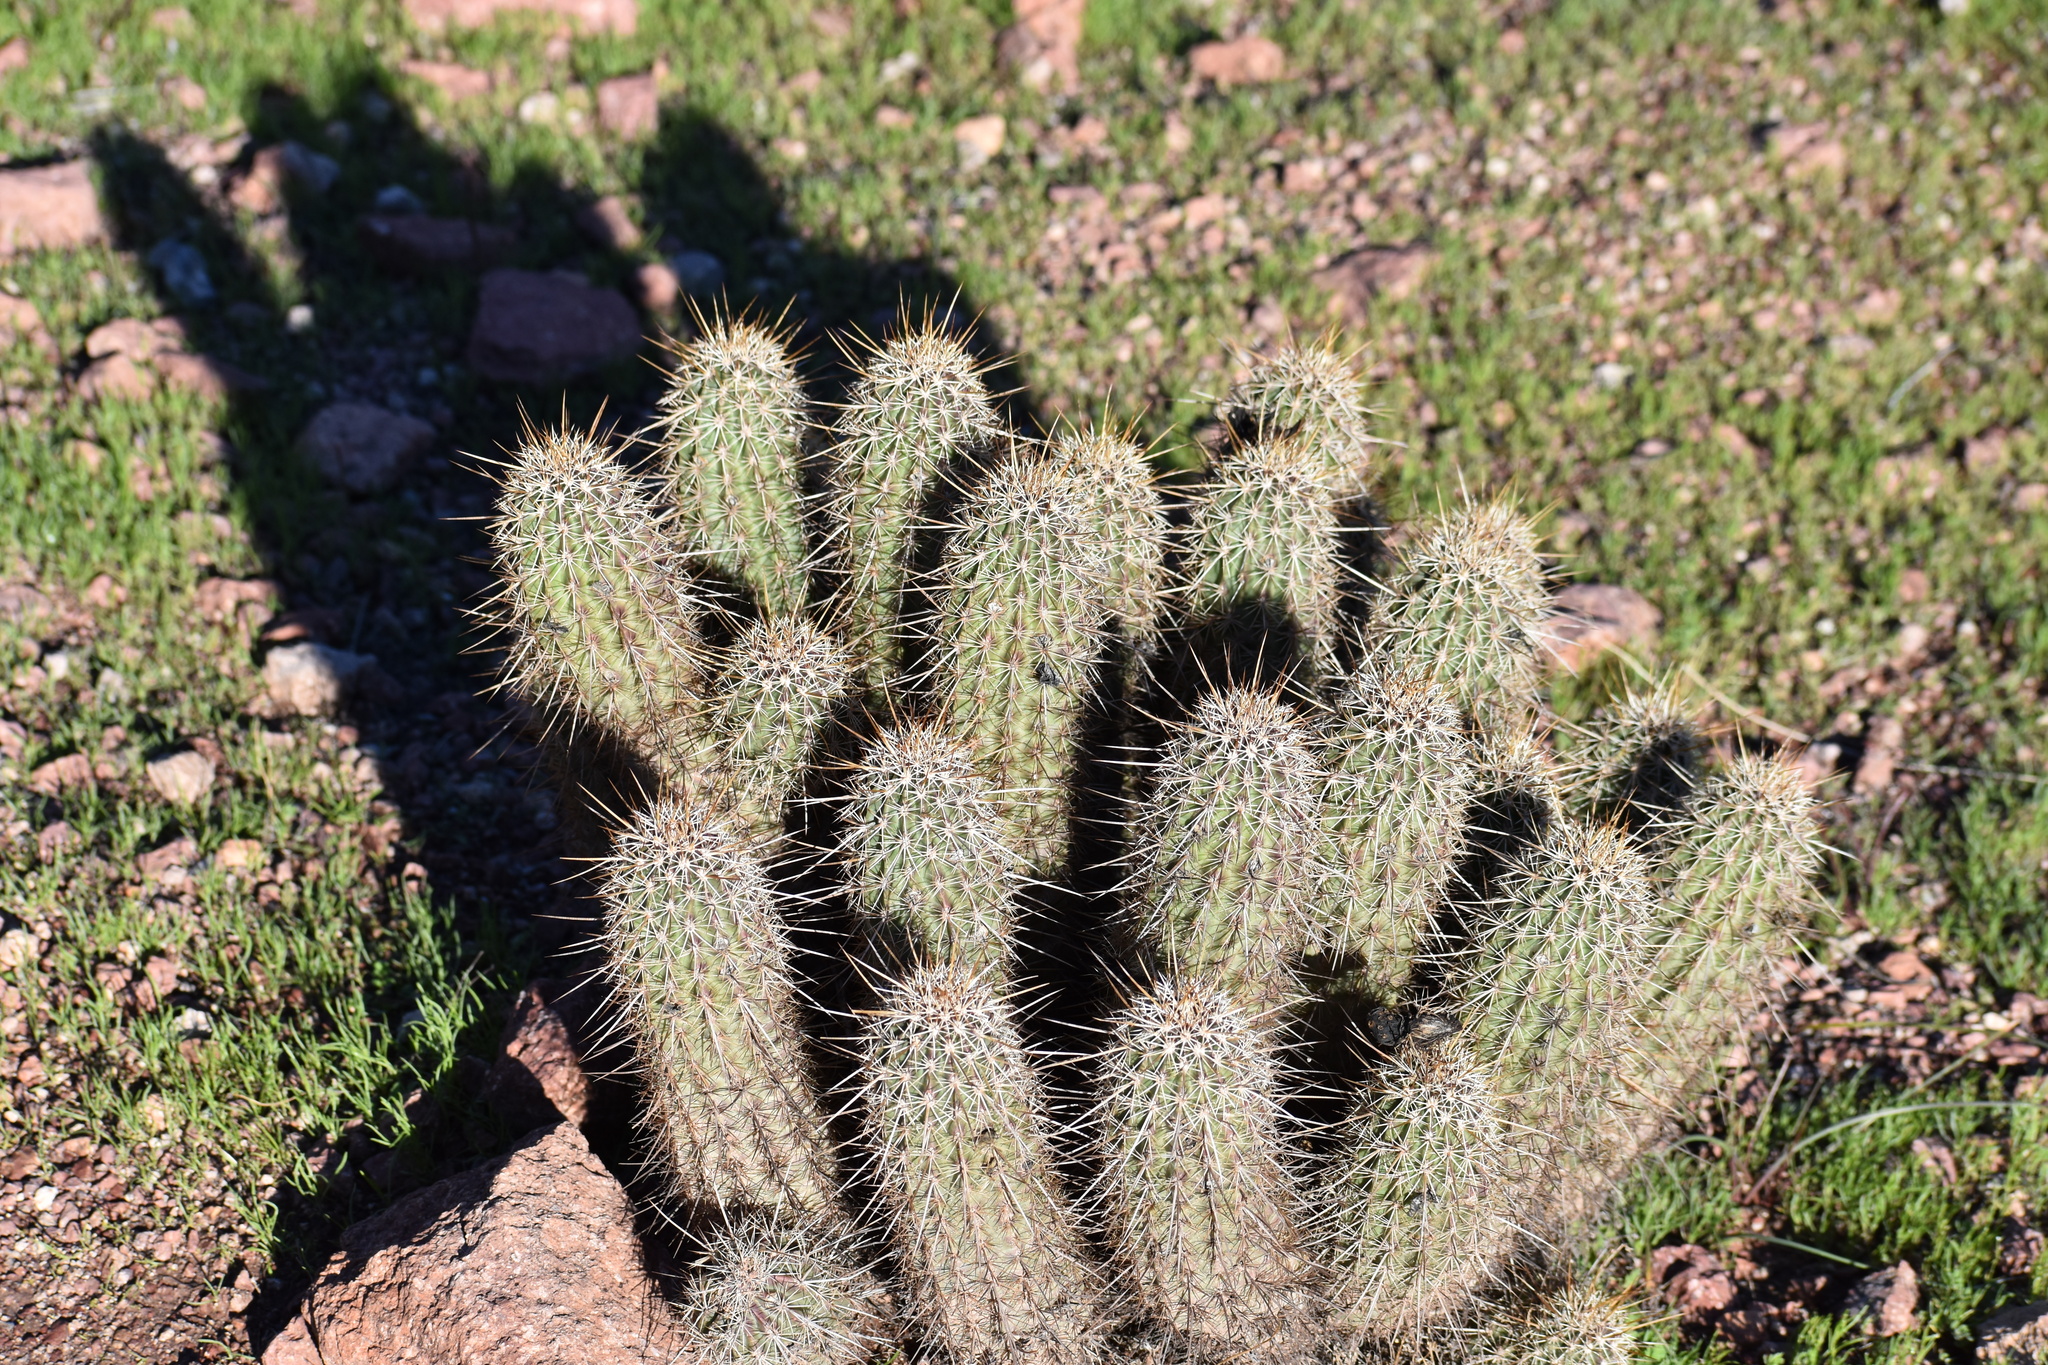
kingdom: Plantae
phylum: Tracheophyta
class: Magnoliopsida
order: Caryophyllales
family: Cactaceae
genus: Echinocereus
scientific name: Echinocereus engelmannii
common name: Engelmann's hedgehog cactus
